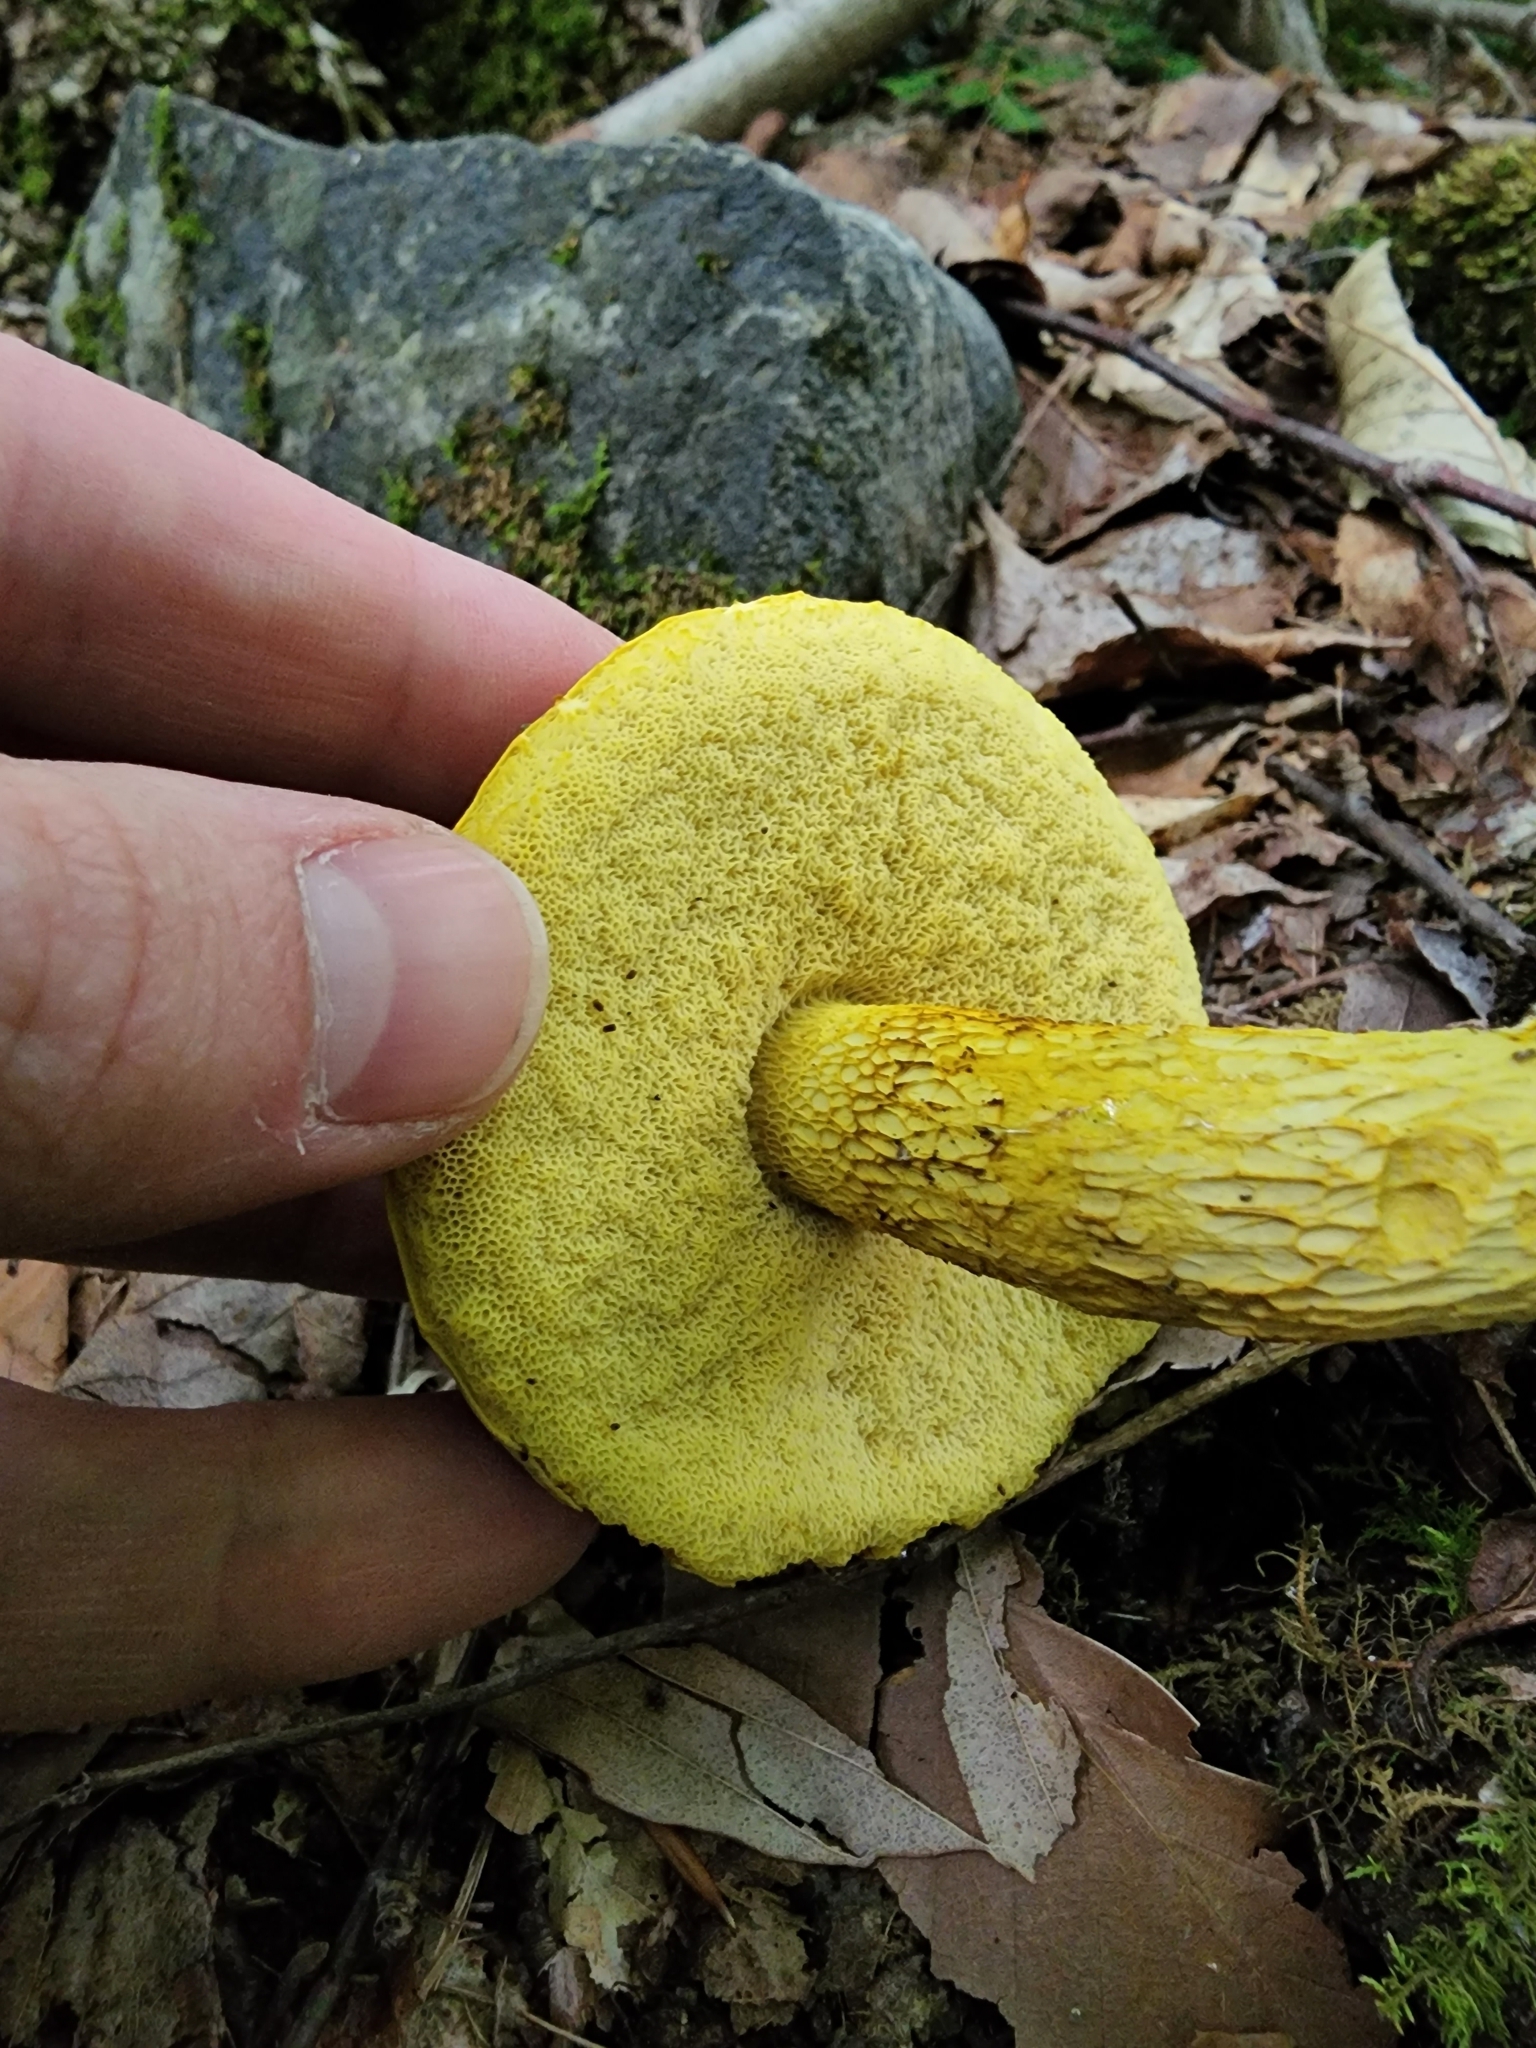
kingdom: Fungi
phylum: Basidiomycota
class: Agaricomycetes
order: Boletales
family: Boletaceae
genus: Retiboletus
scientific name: Retiboletus ornatipes
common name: Ornate-stalked bolete
